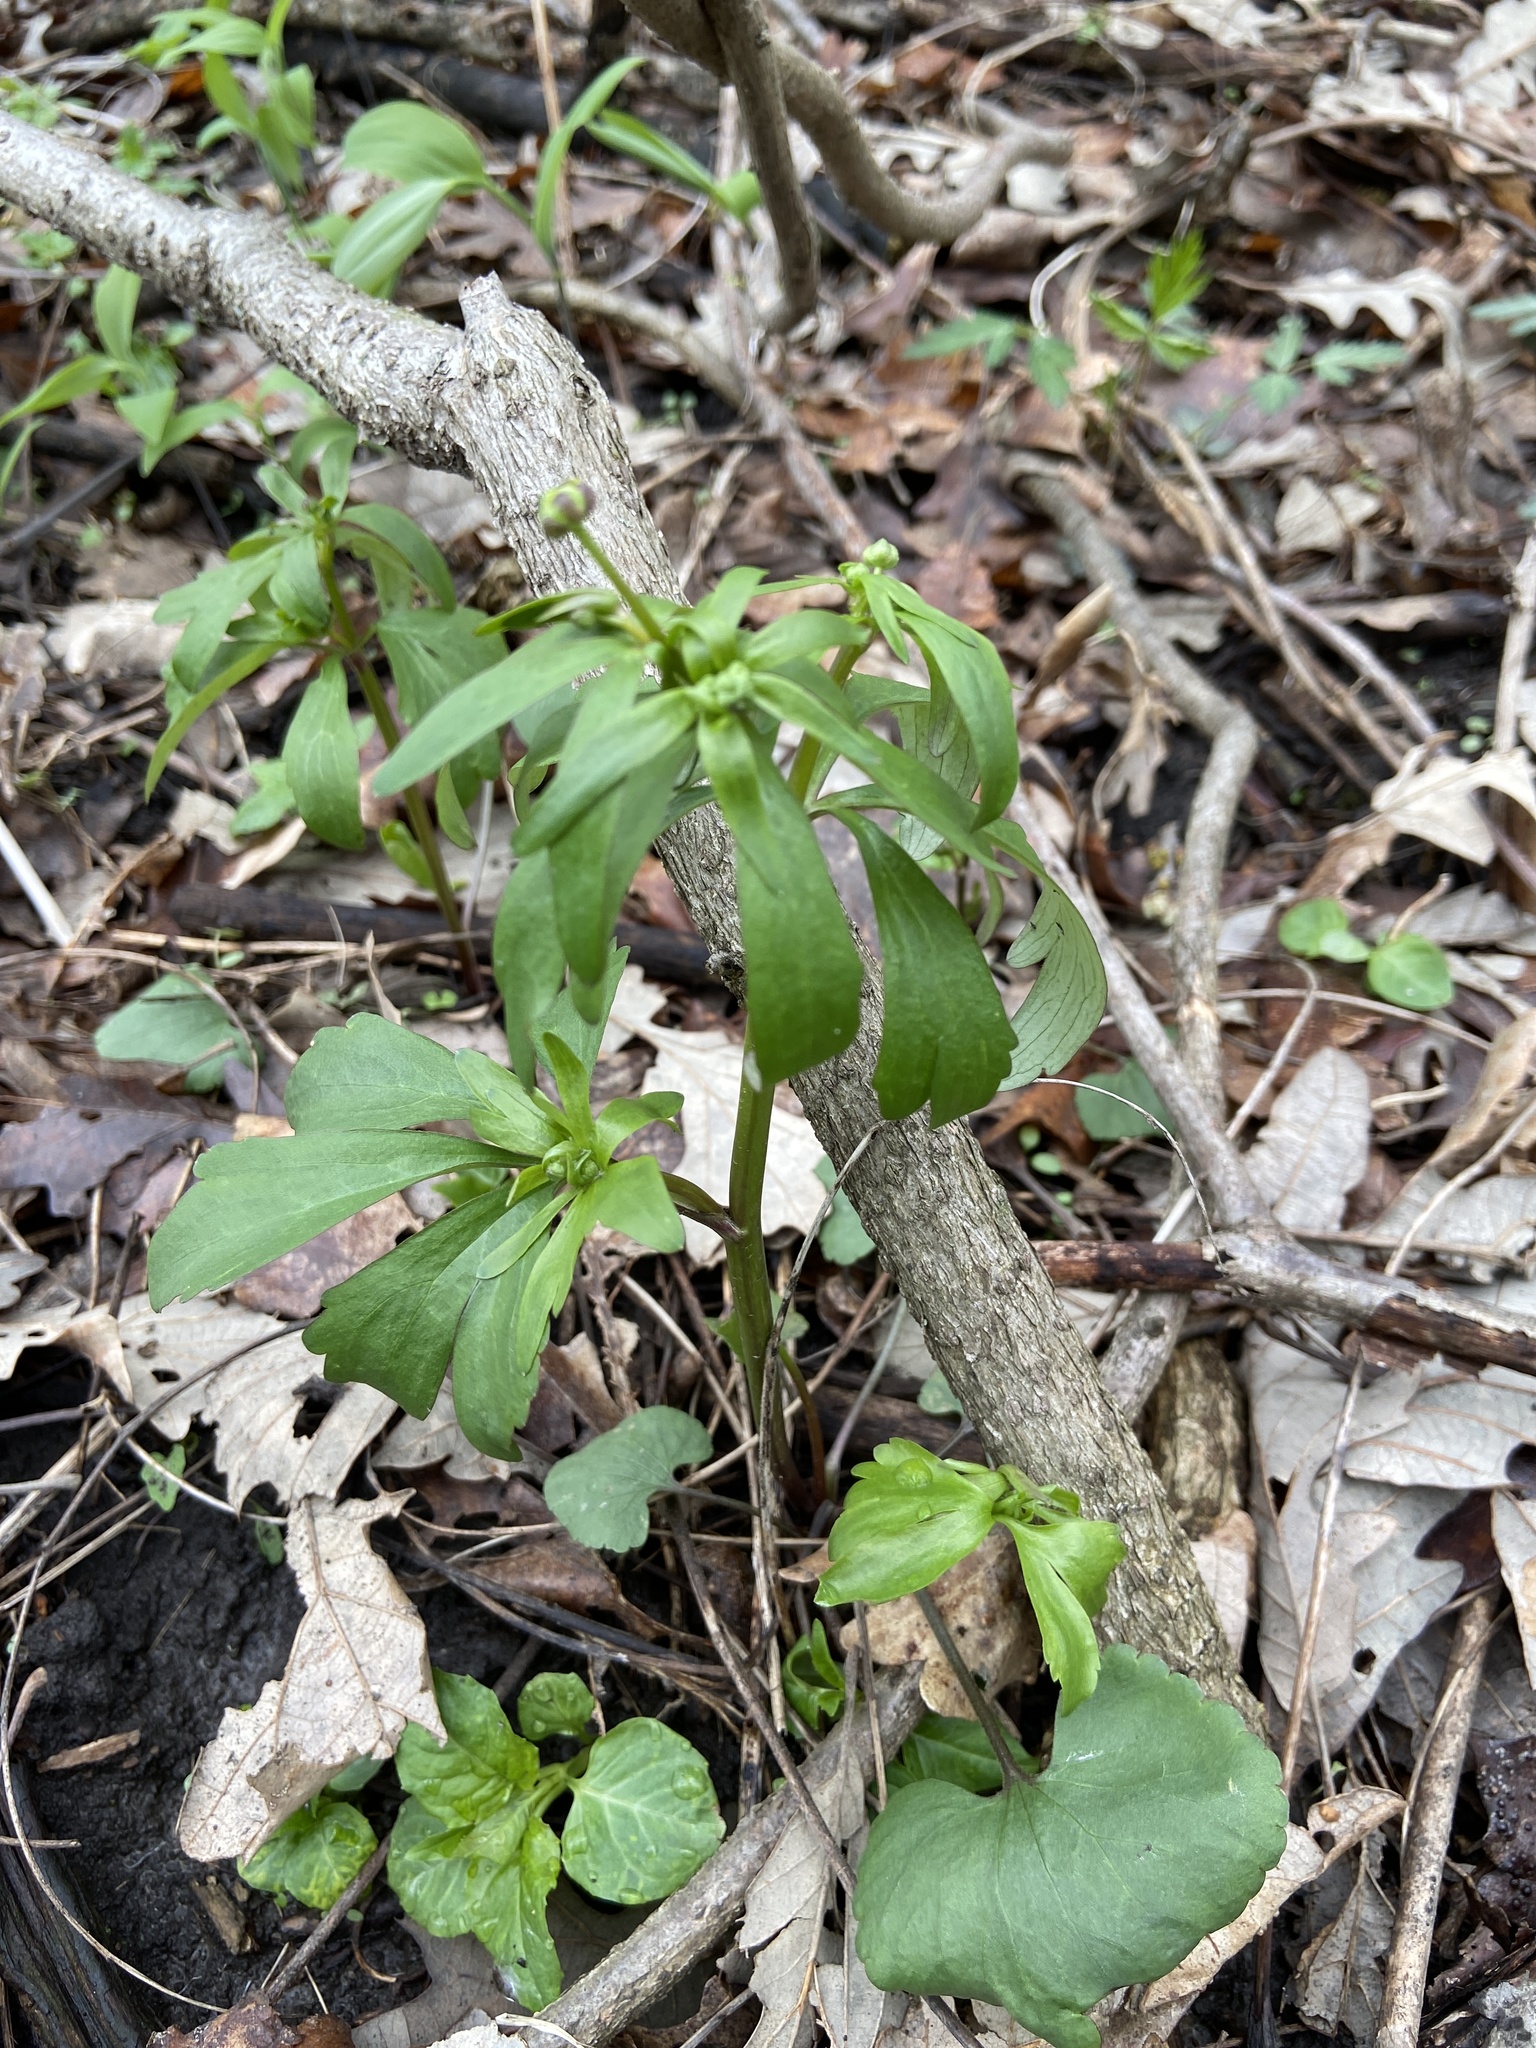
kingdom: Plantae
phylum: Tracheophyta
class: Magnoliopsida
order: Ranunculales
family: Ranunculaceae
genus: Ranunculus
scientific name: Ranunculus abortivus
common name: Early wood buttercup
